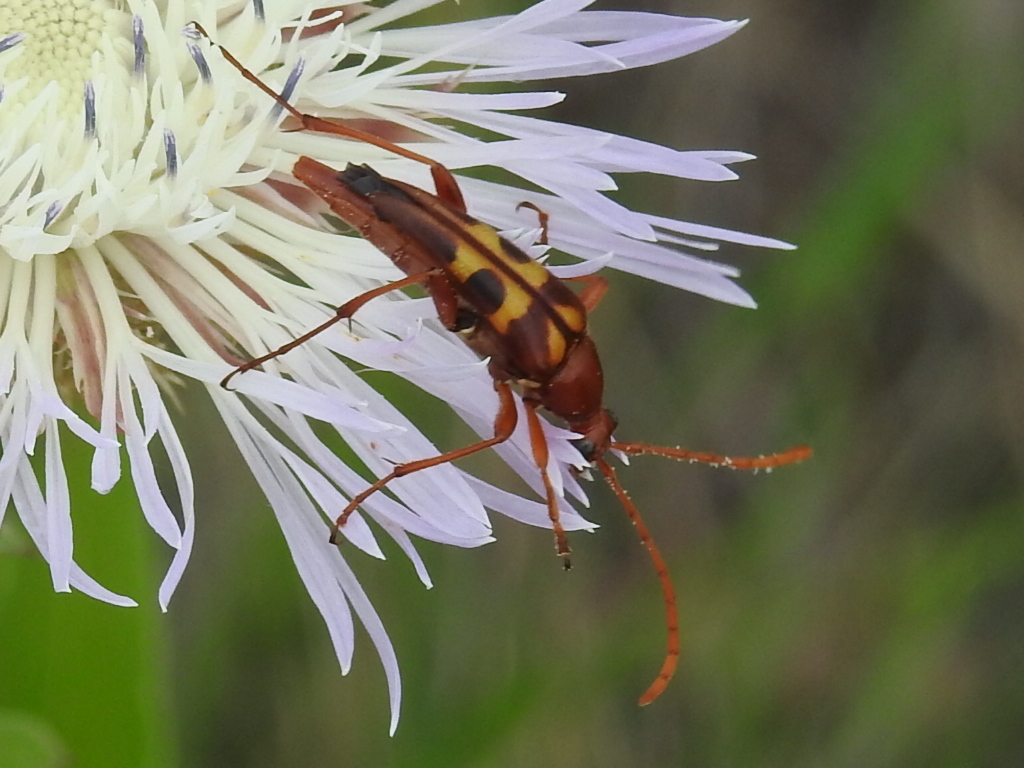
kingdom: Animalia
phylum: Arthropoda
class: Insecta
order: Coleoptera
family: Cerambycidae
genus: Strangalia
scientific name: Strangalia sexnotata
